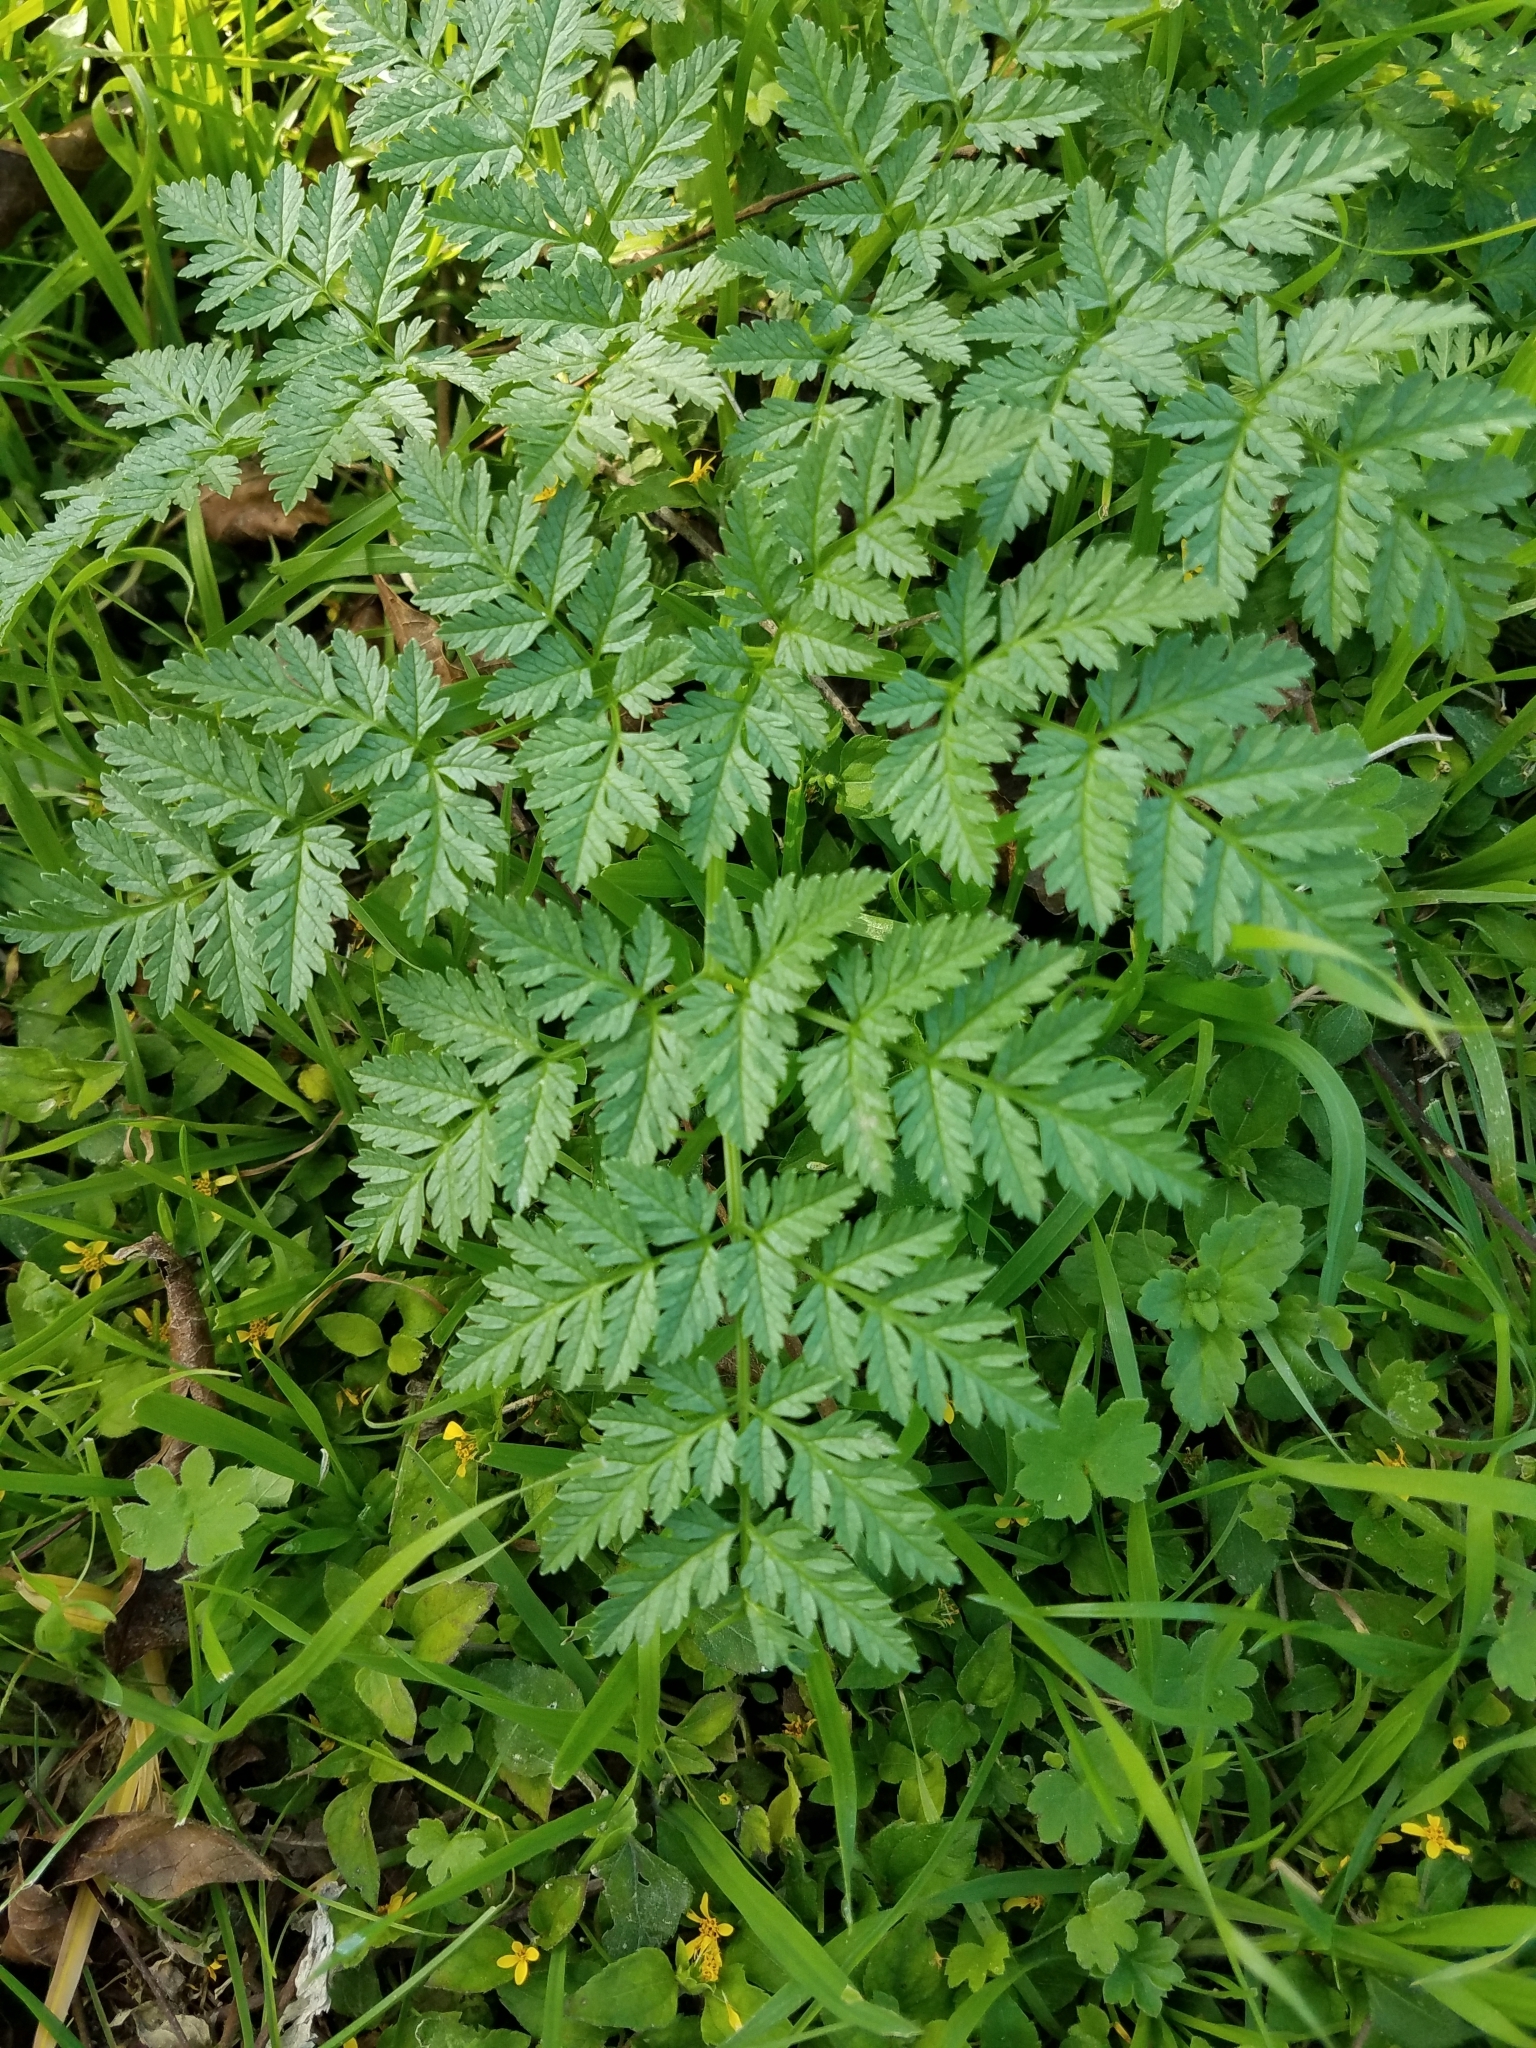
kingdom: Plantae
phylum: Tracheophyta
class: Magnoliopsida
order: Apiales
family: Apiaceae
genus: Conium
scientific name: Conium maculatum
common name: Hemlock
